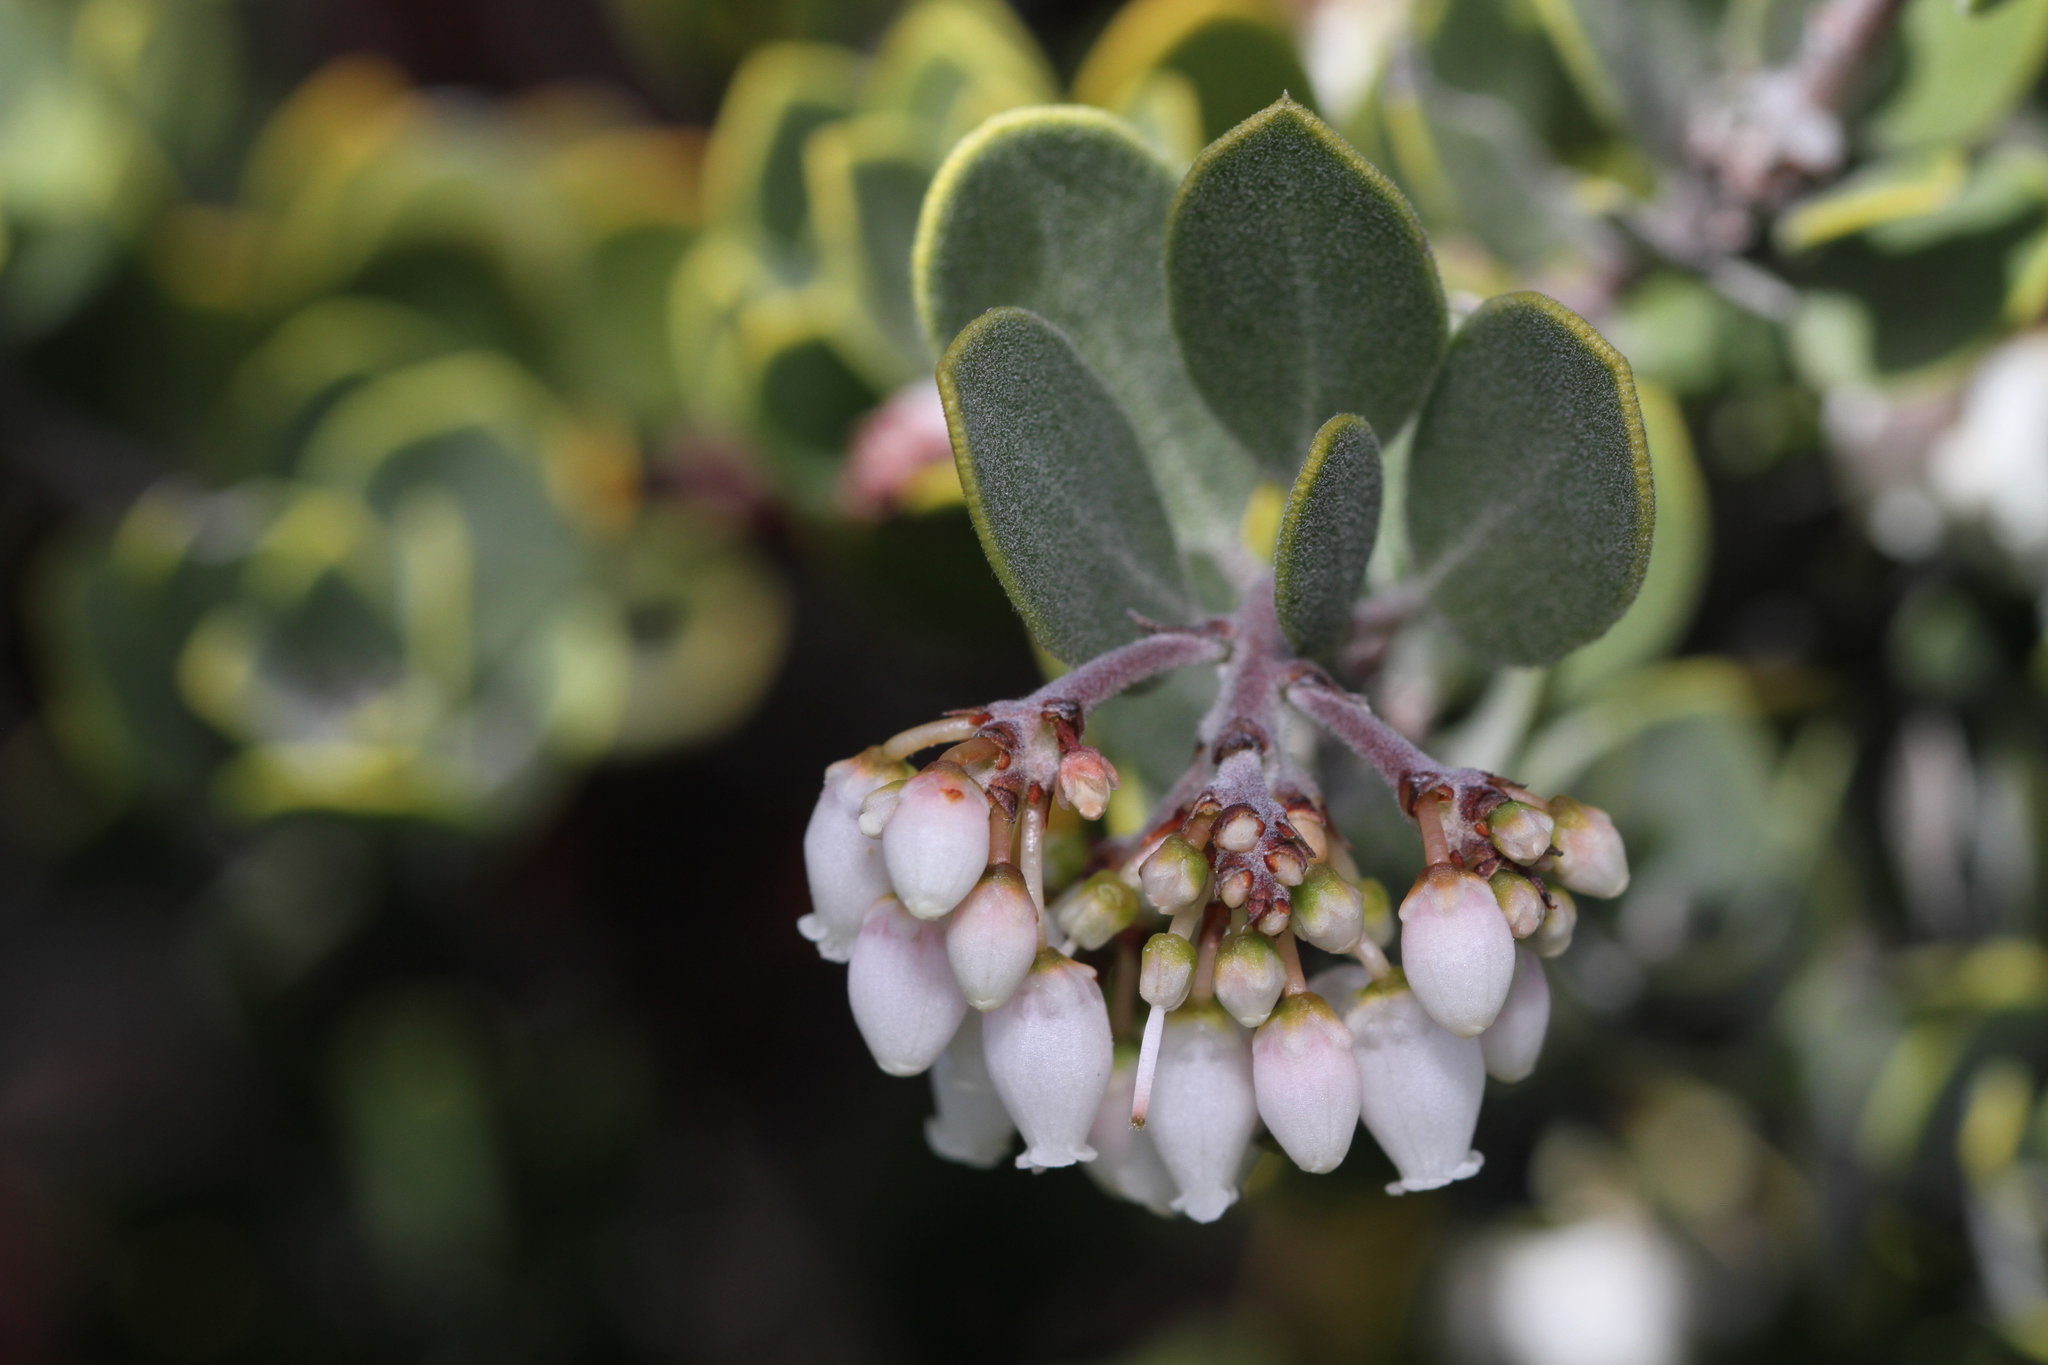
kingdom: Plantae
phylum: Tracheophyta
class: Magnoliopsida
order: Ericales
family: Ericaceae
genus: Arctostaphylos
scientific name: Arctostaphylos montana
